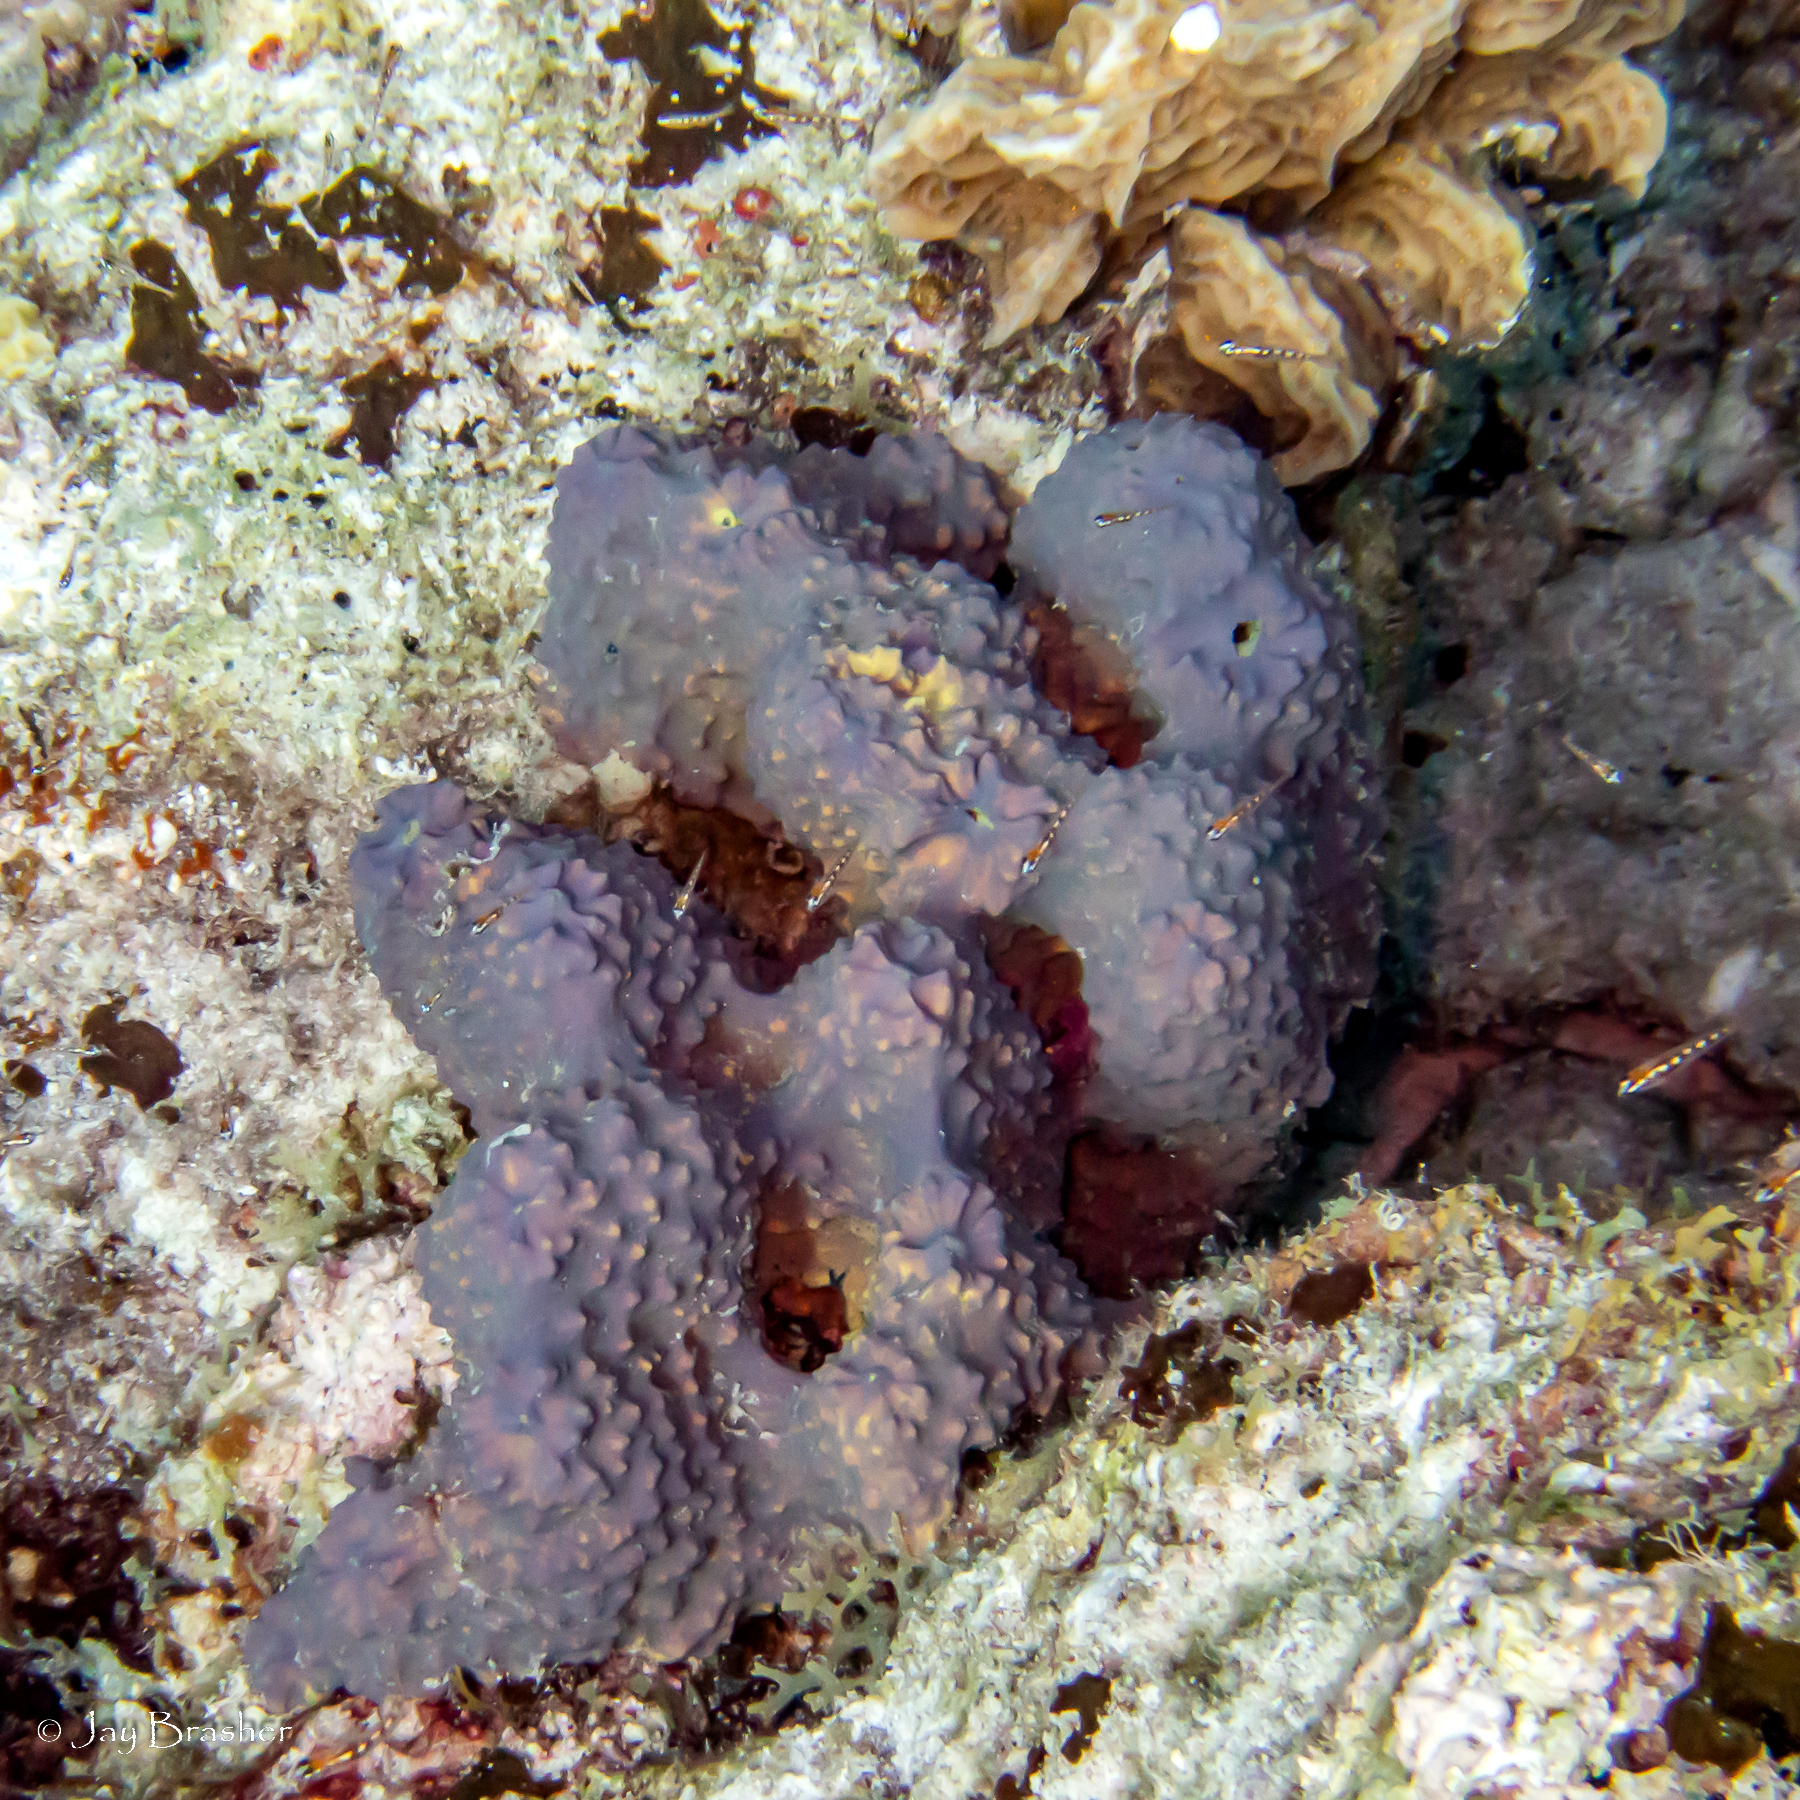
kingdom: Animalia
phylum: Cnidaria
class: Anthozoa
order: Scleractinia
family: Agariciidae
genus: Agaricia
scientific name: Agaricia agaricites
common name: Lettuce coral
